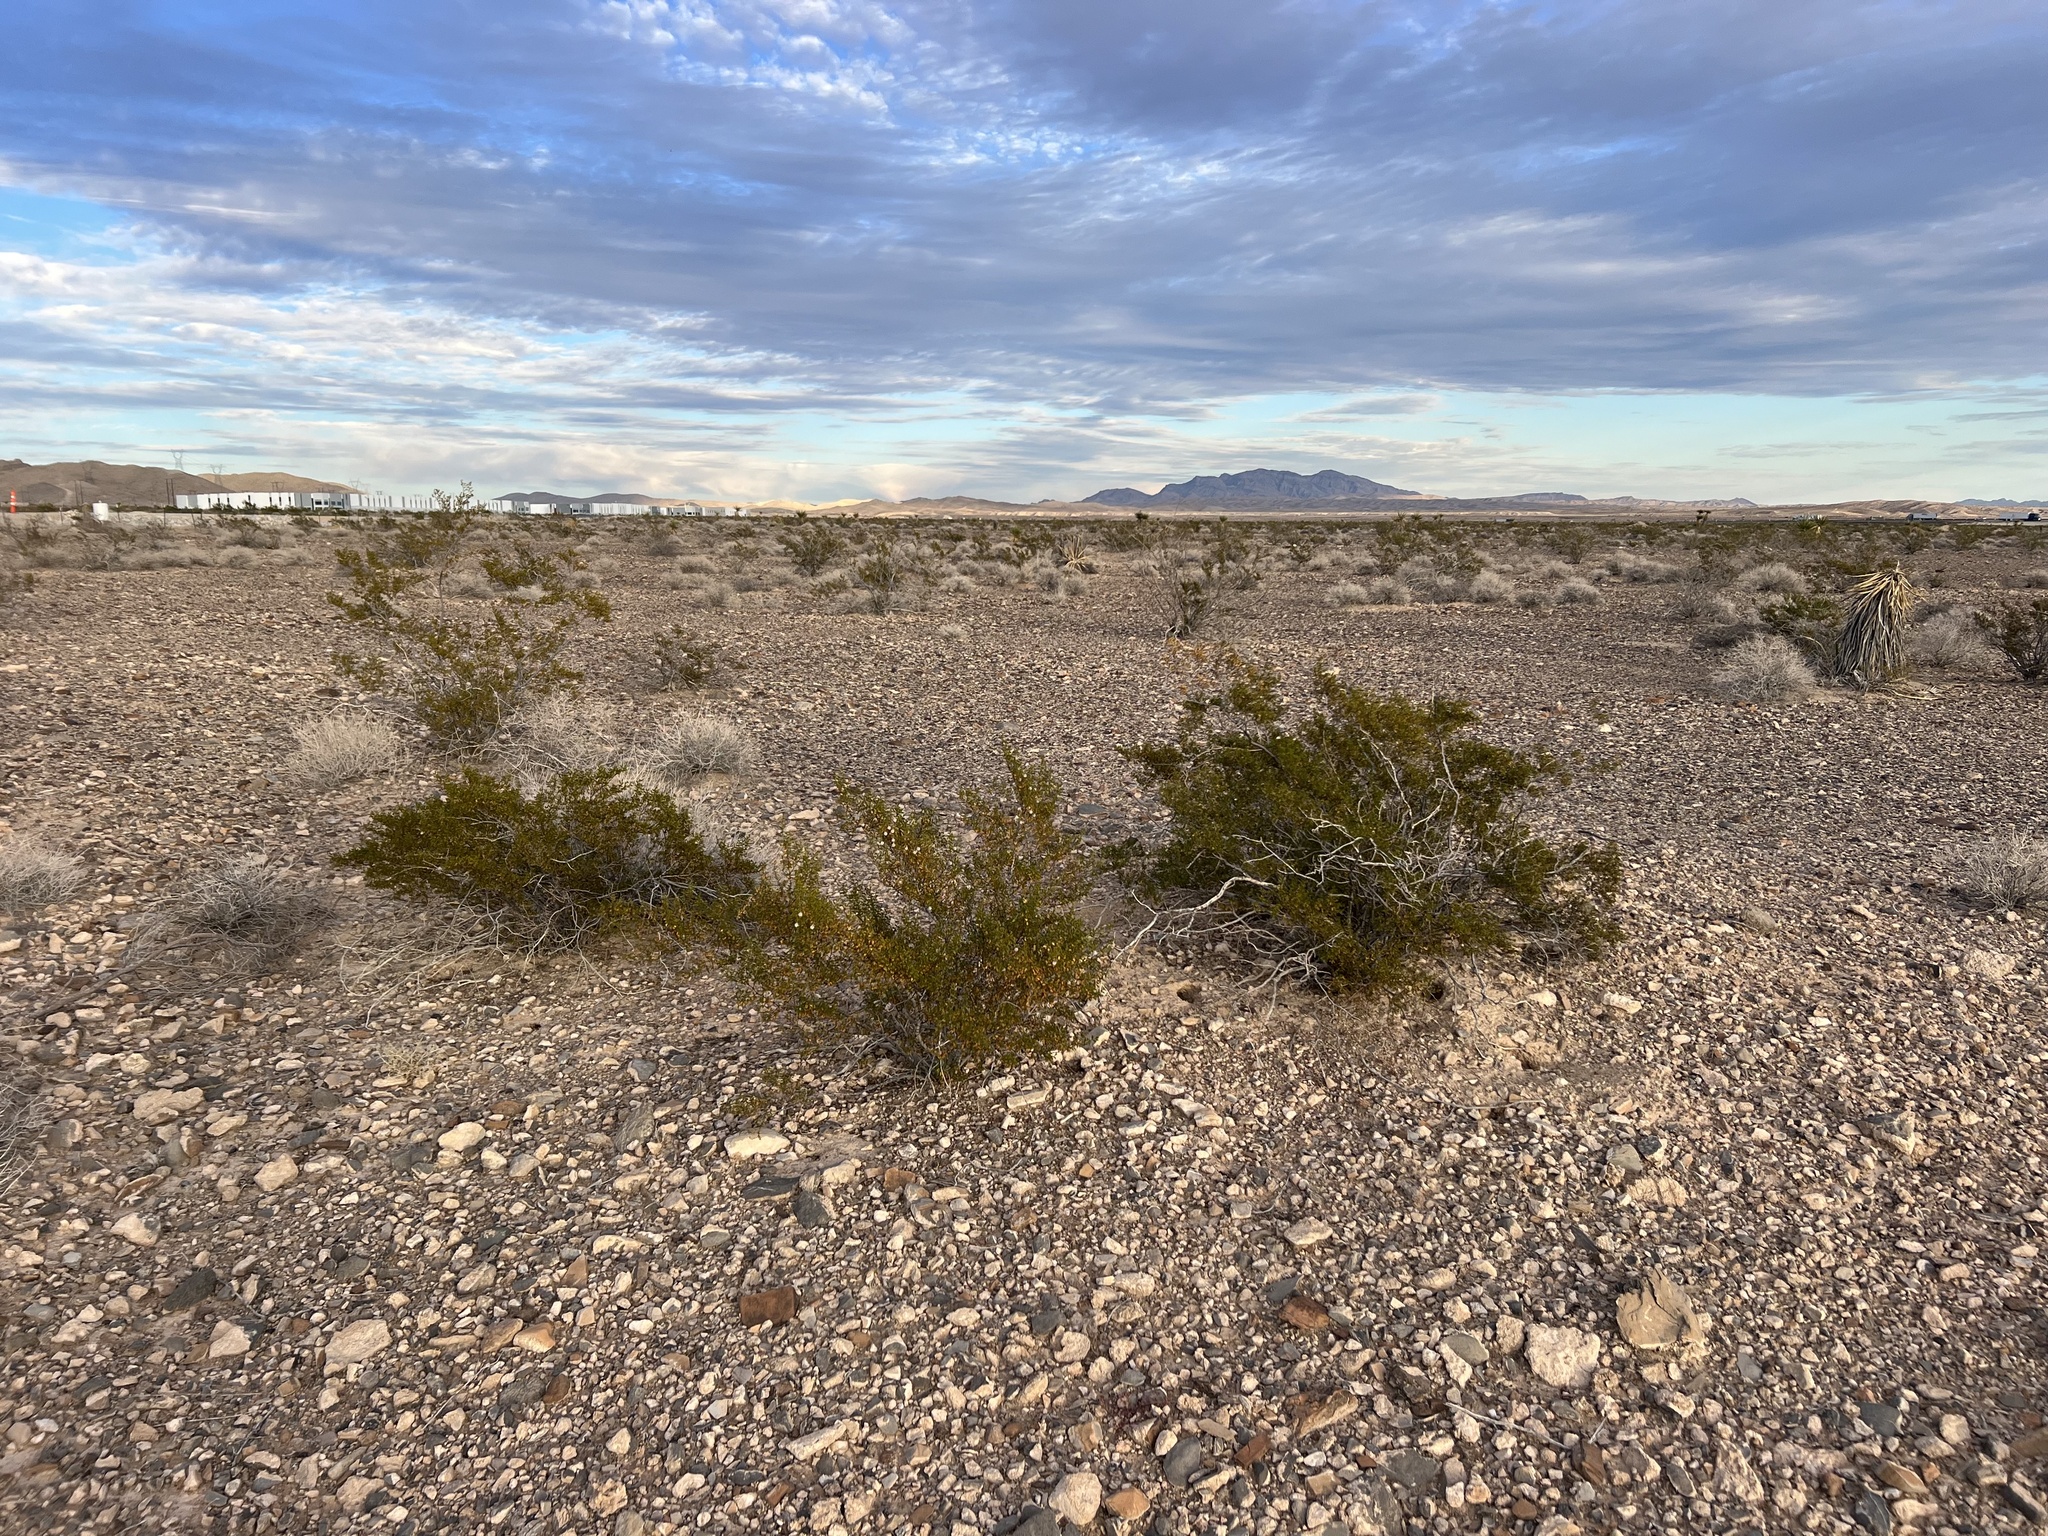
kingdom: Plantae
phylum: Tracheophyta
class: Magnoliopsida
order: Zygophyllales
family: Zygophyllaceae
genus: Larrea
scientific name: Larrea tridentata
